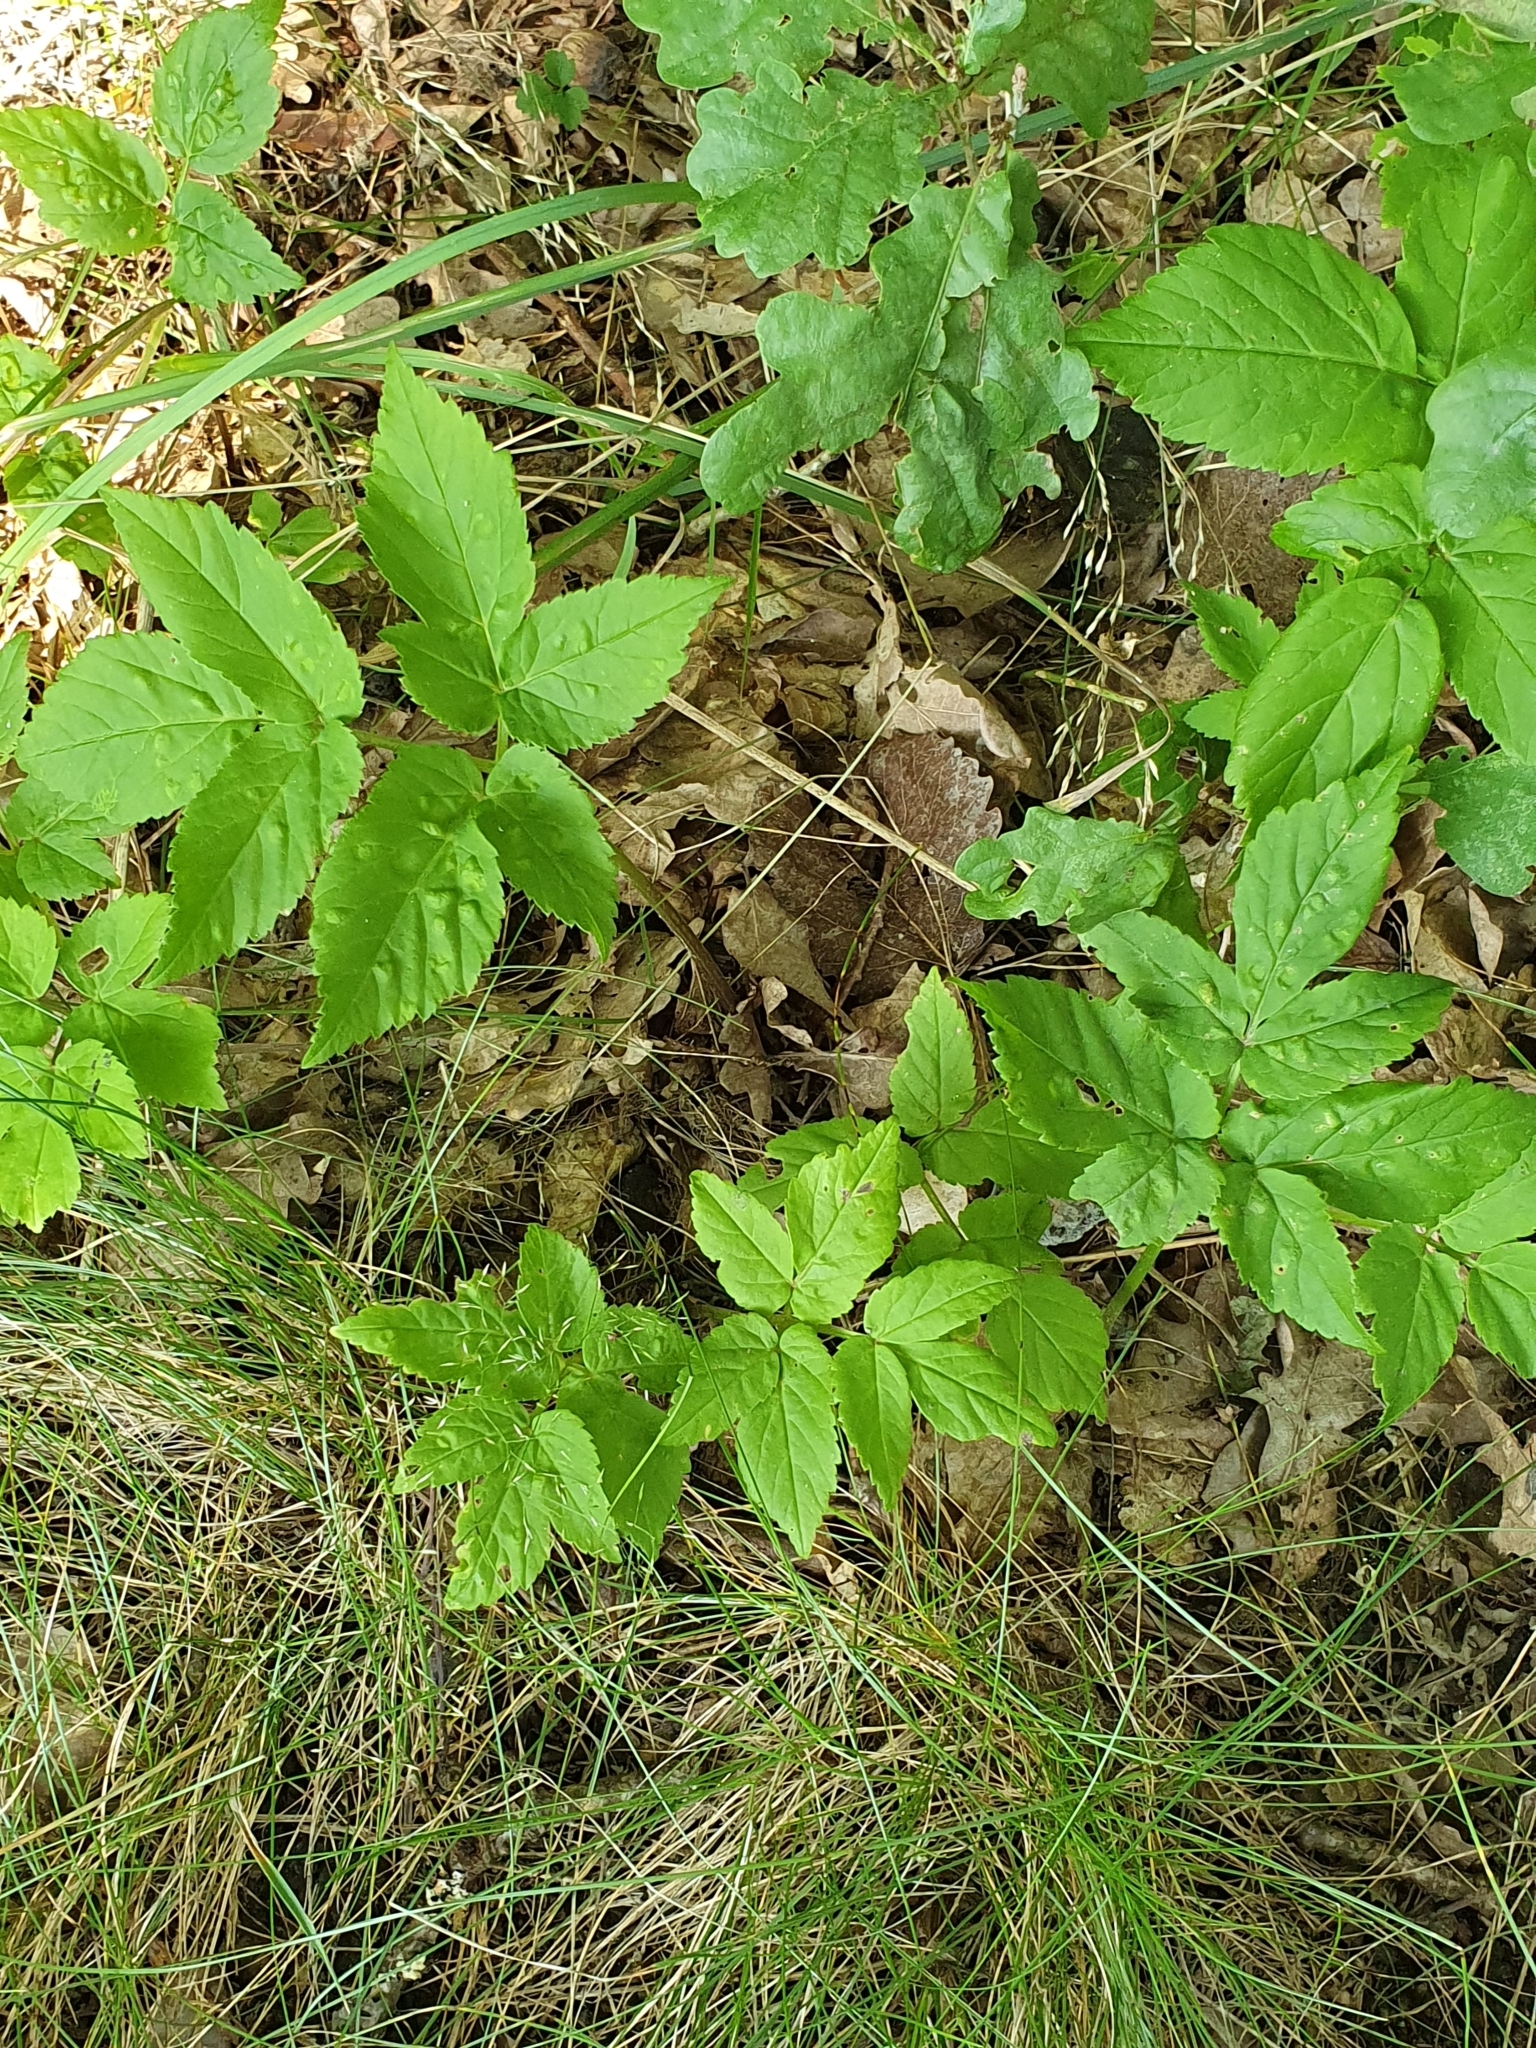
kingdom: Plantae
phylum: Tracheophyta
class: Magnoliopsida
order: Apiales
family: Apiaceae
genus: Aegopodium
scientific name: Aegopodium podagraria
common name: Ground-elder
